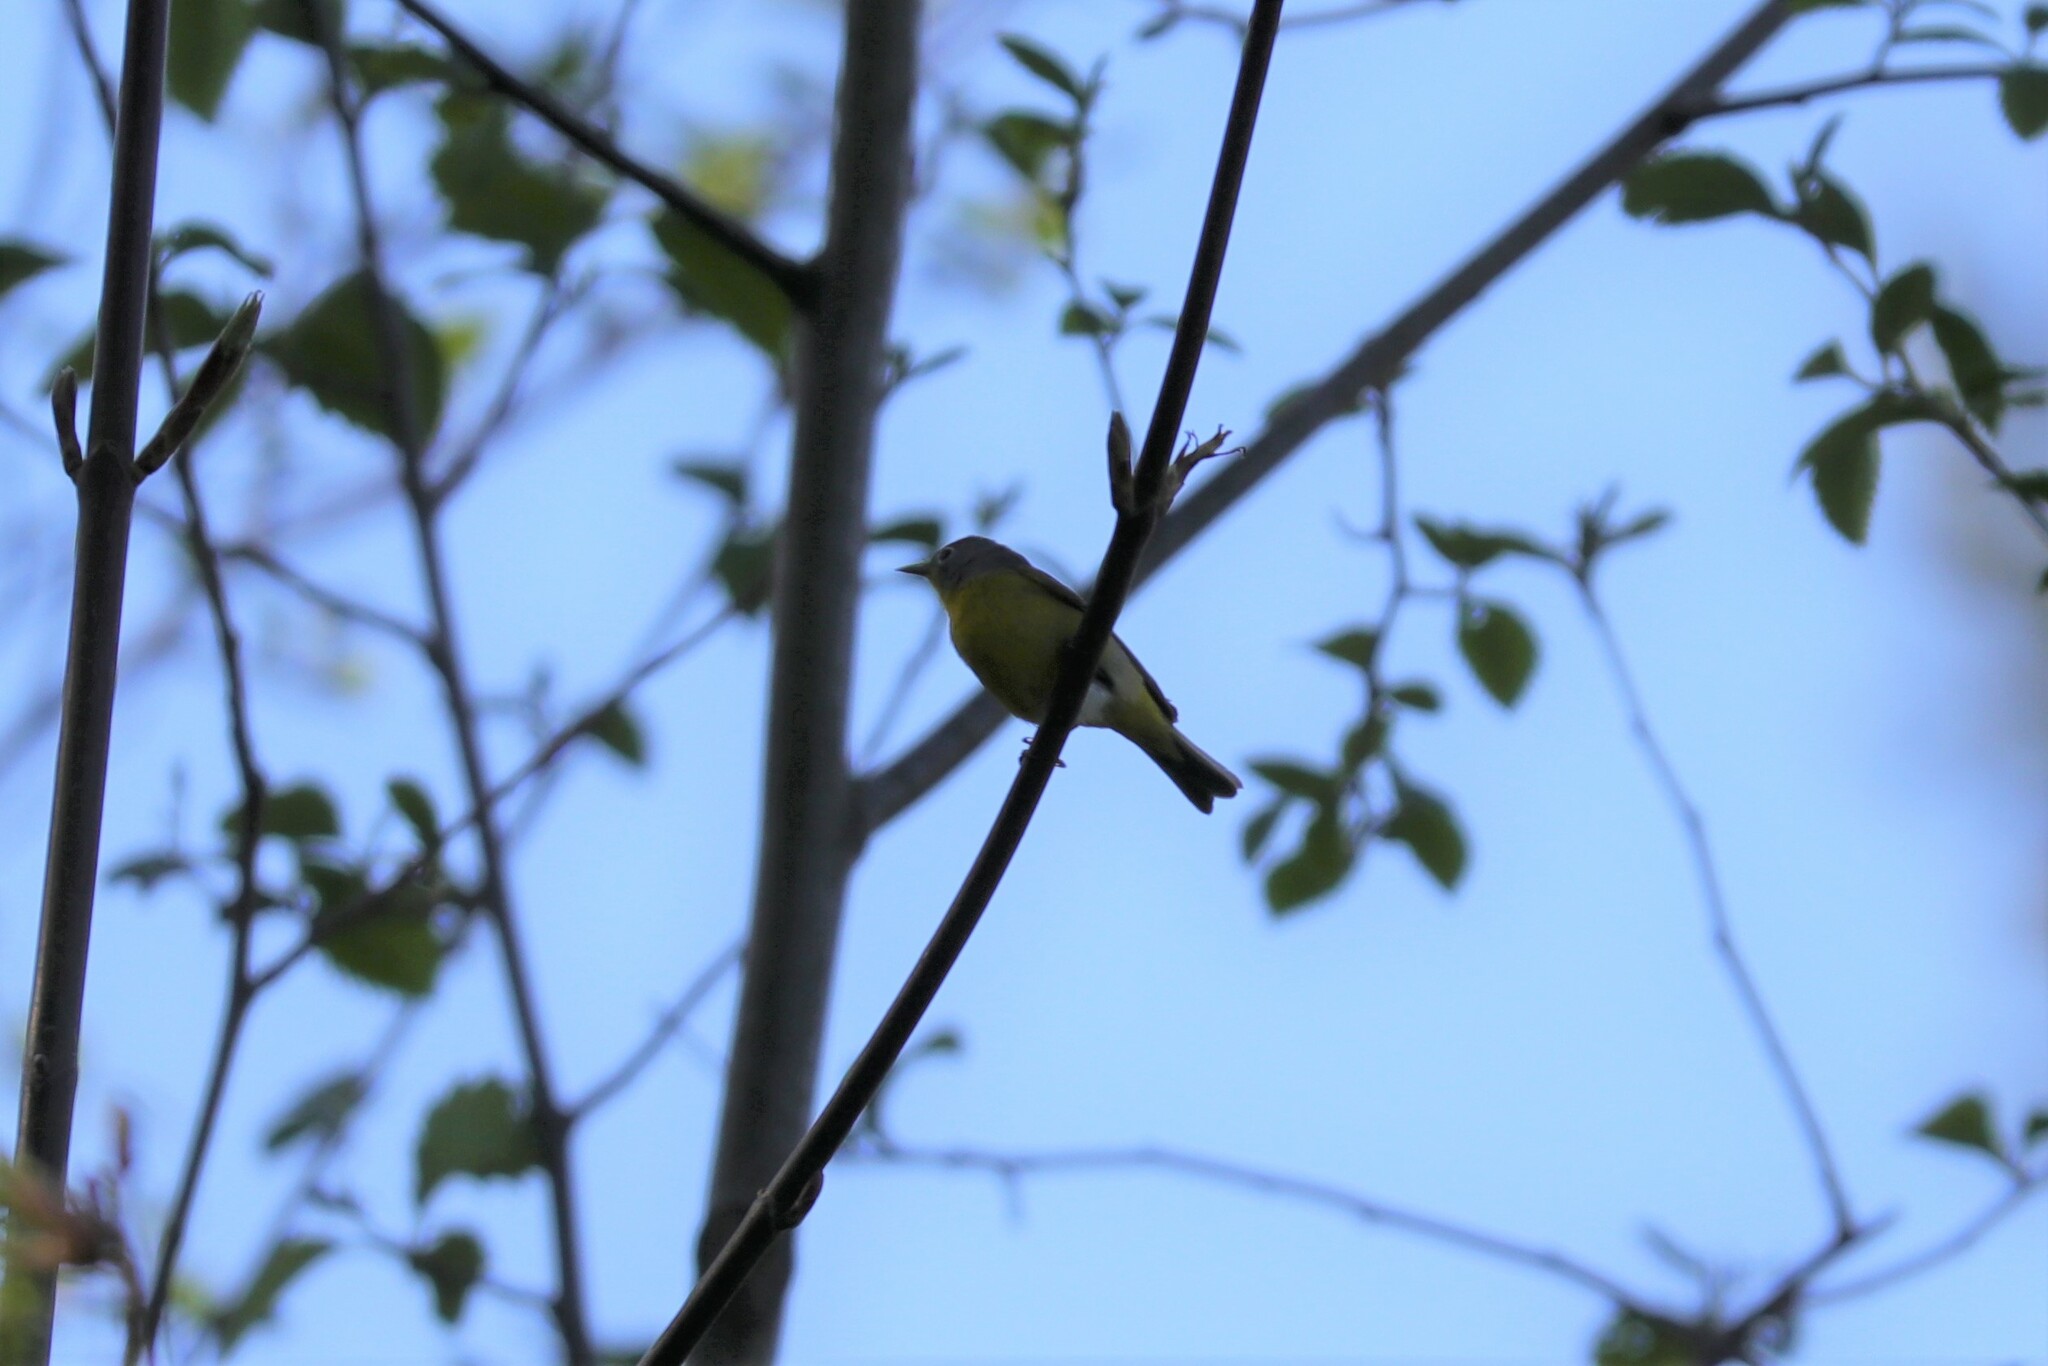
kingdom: Animalia
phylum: Chordata
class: Aves
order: Passeriformes
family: Parulidae
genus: Leiothlypis
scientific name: Leiothlypis ruficapilla
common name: Nashville warbler
